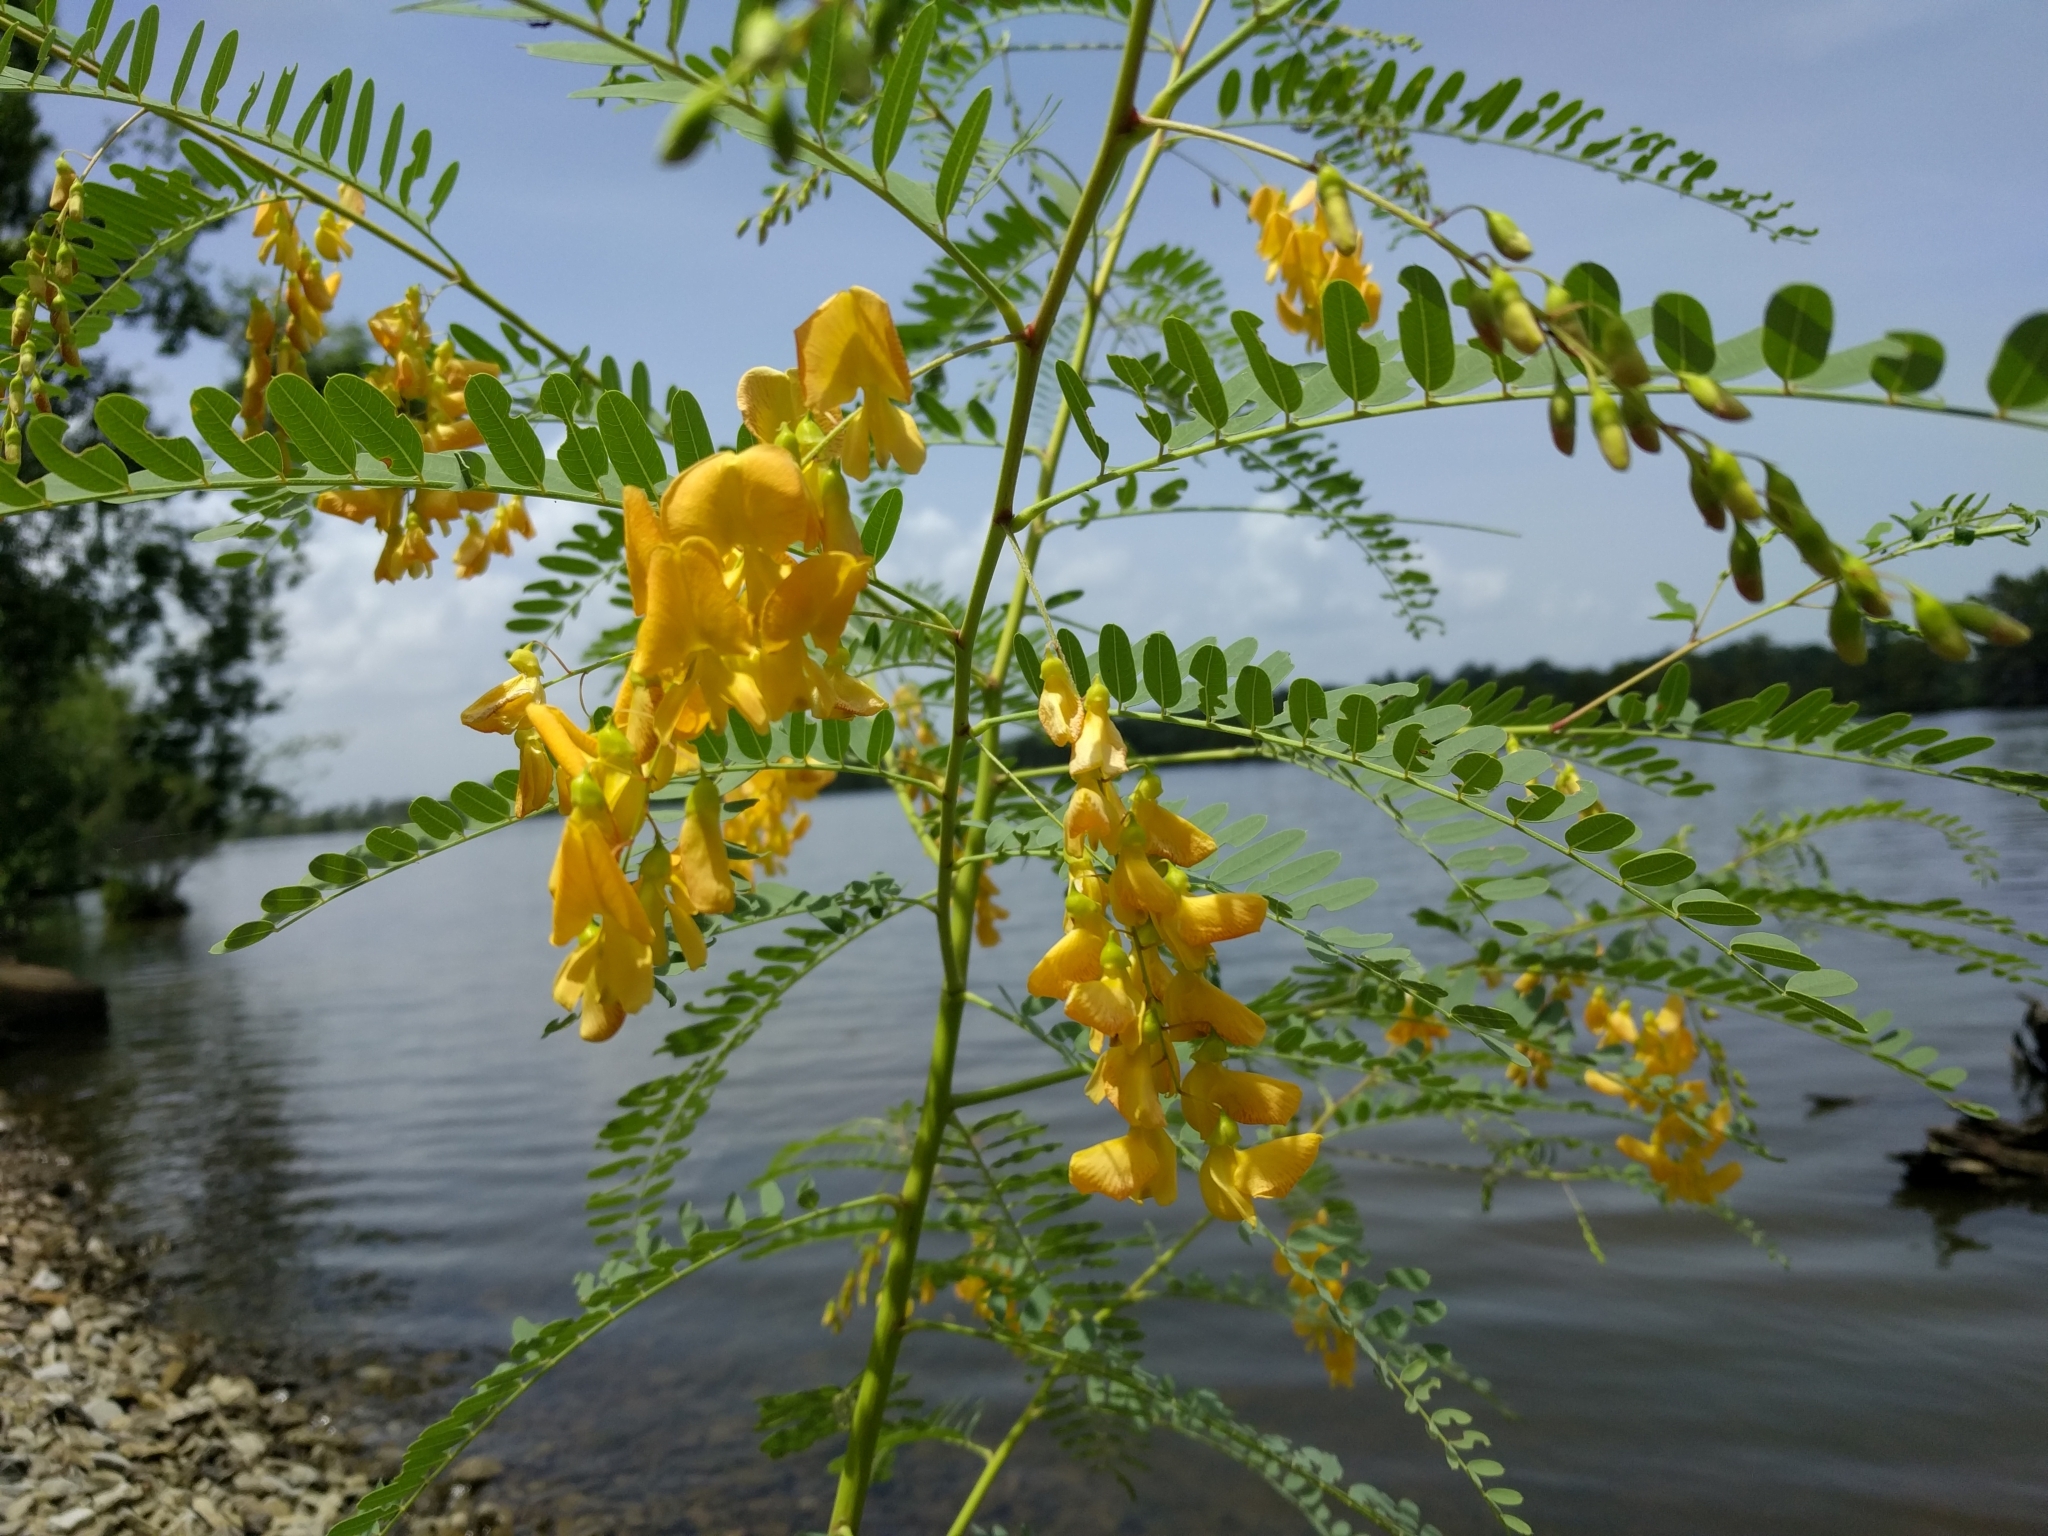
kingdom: Plantae
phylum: Tracheophyta
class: Magnoliopsida
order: Fabales
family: Fabaceae
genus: Sesbania
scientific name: Sesbania drummondii
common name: Poison-bean
